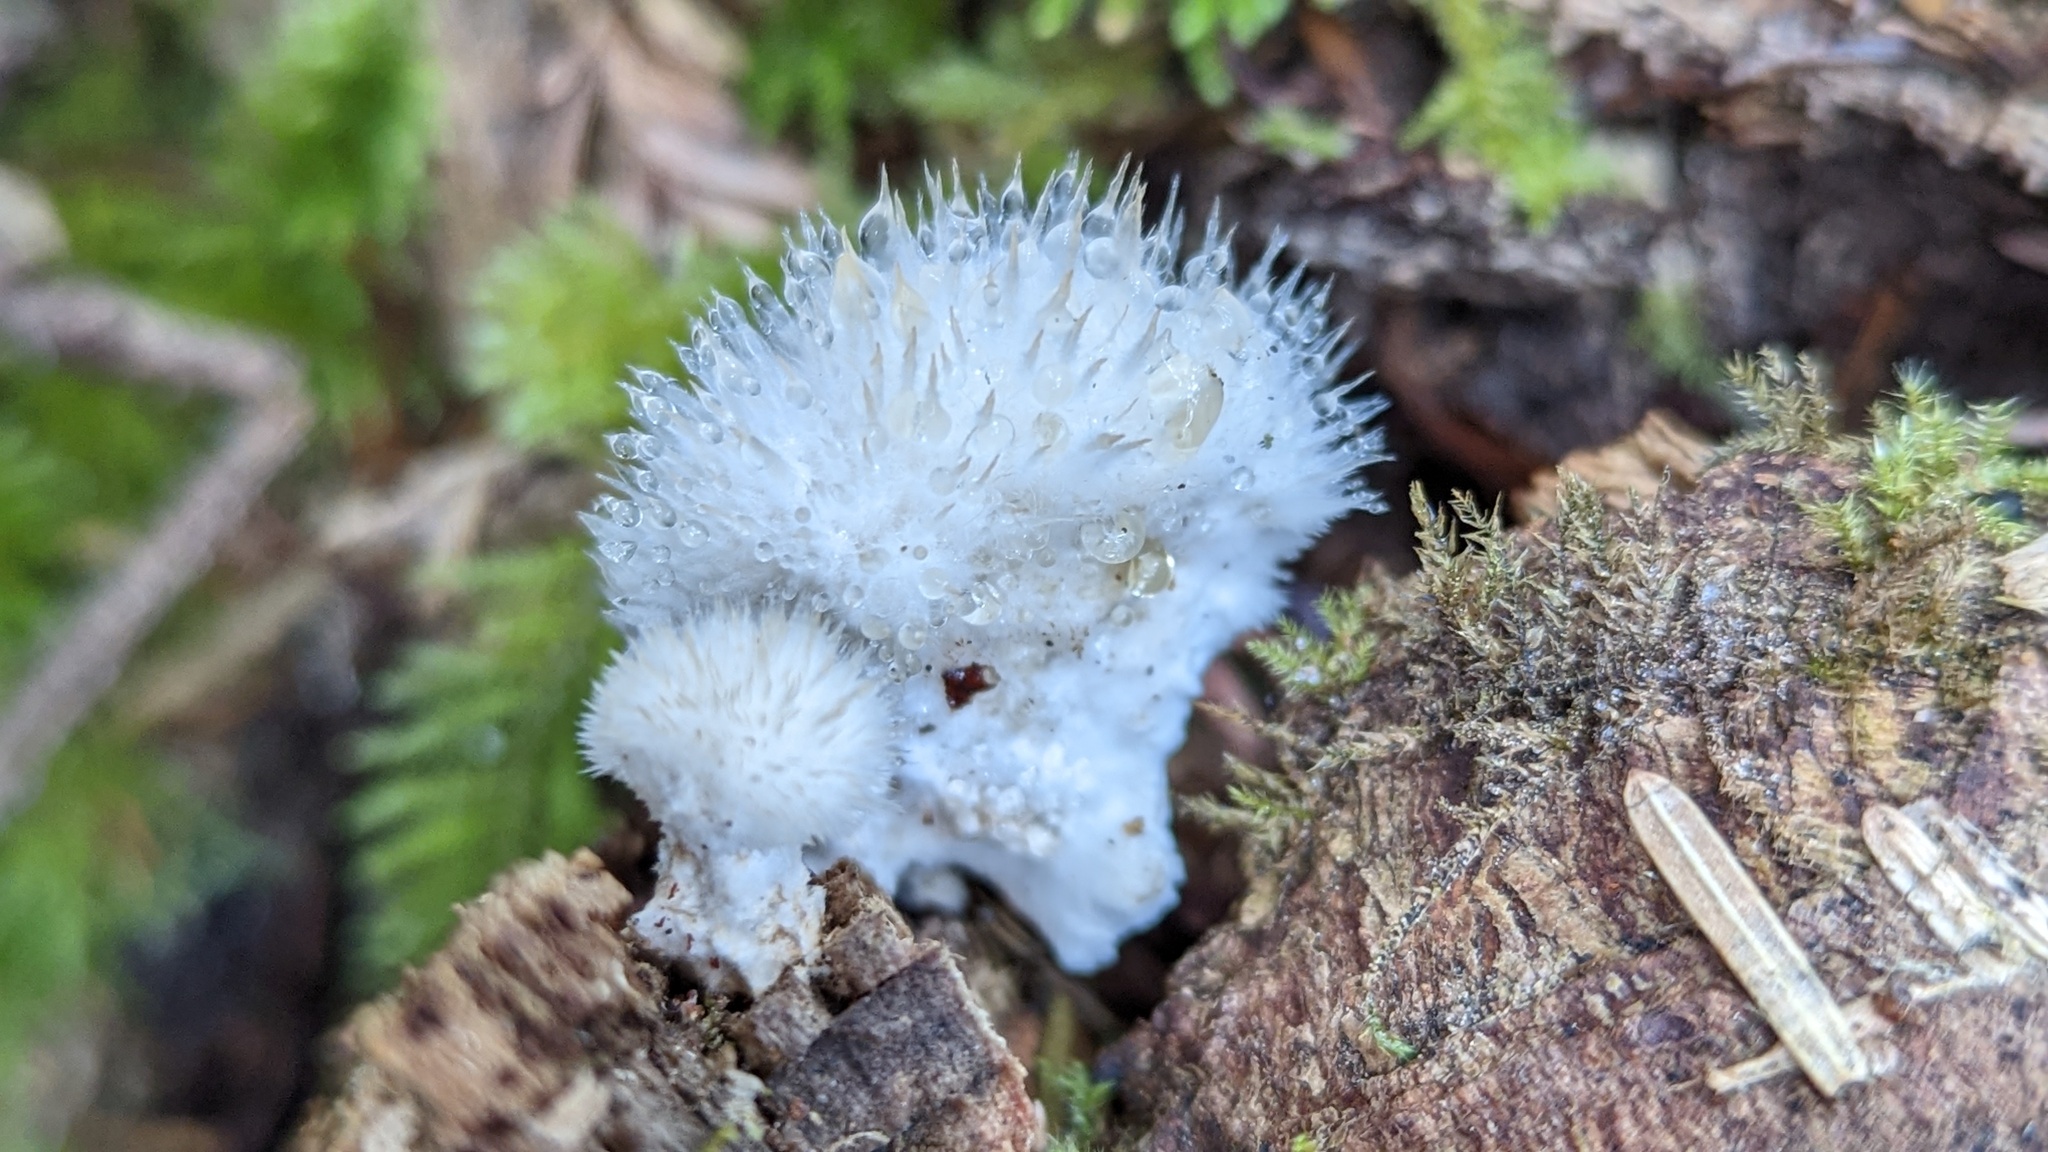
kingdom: Fungi
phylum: Basidiomycota
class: Agaricomycetes
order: Polyporales
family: Dacryobolaceae
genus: Postia
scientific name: Postia ptychogaster
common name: Powderpuff bracket
